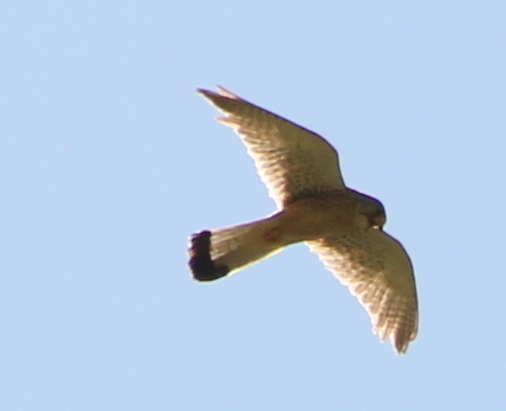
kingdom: Animalia
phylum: Chordata
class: Aves
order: Falconiformes
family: Falconidae
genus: Falco
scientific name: Falco tinnunculus
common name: Common kestrel
